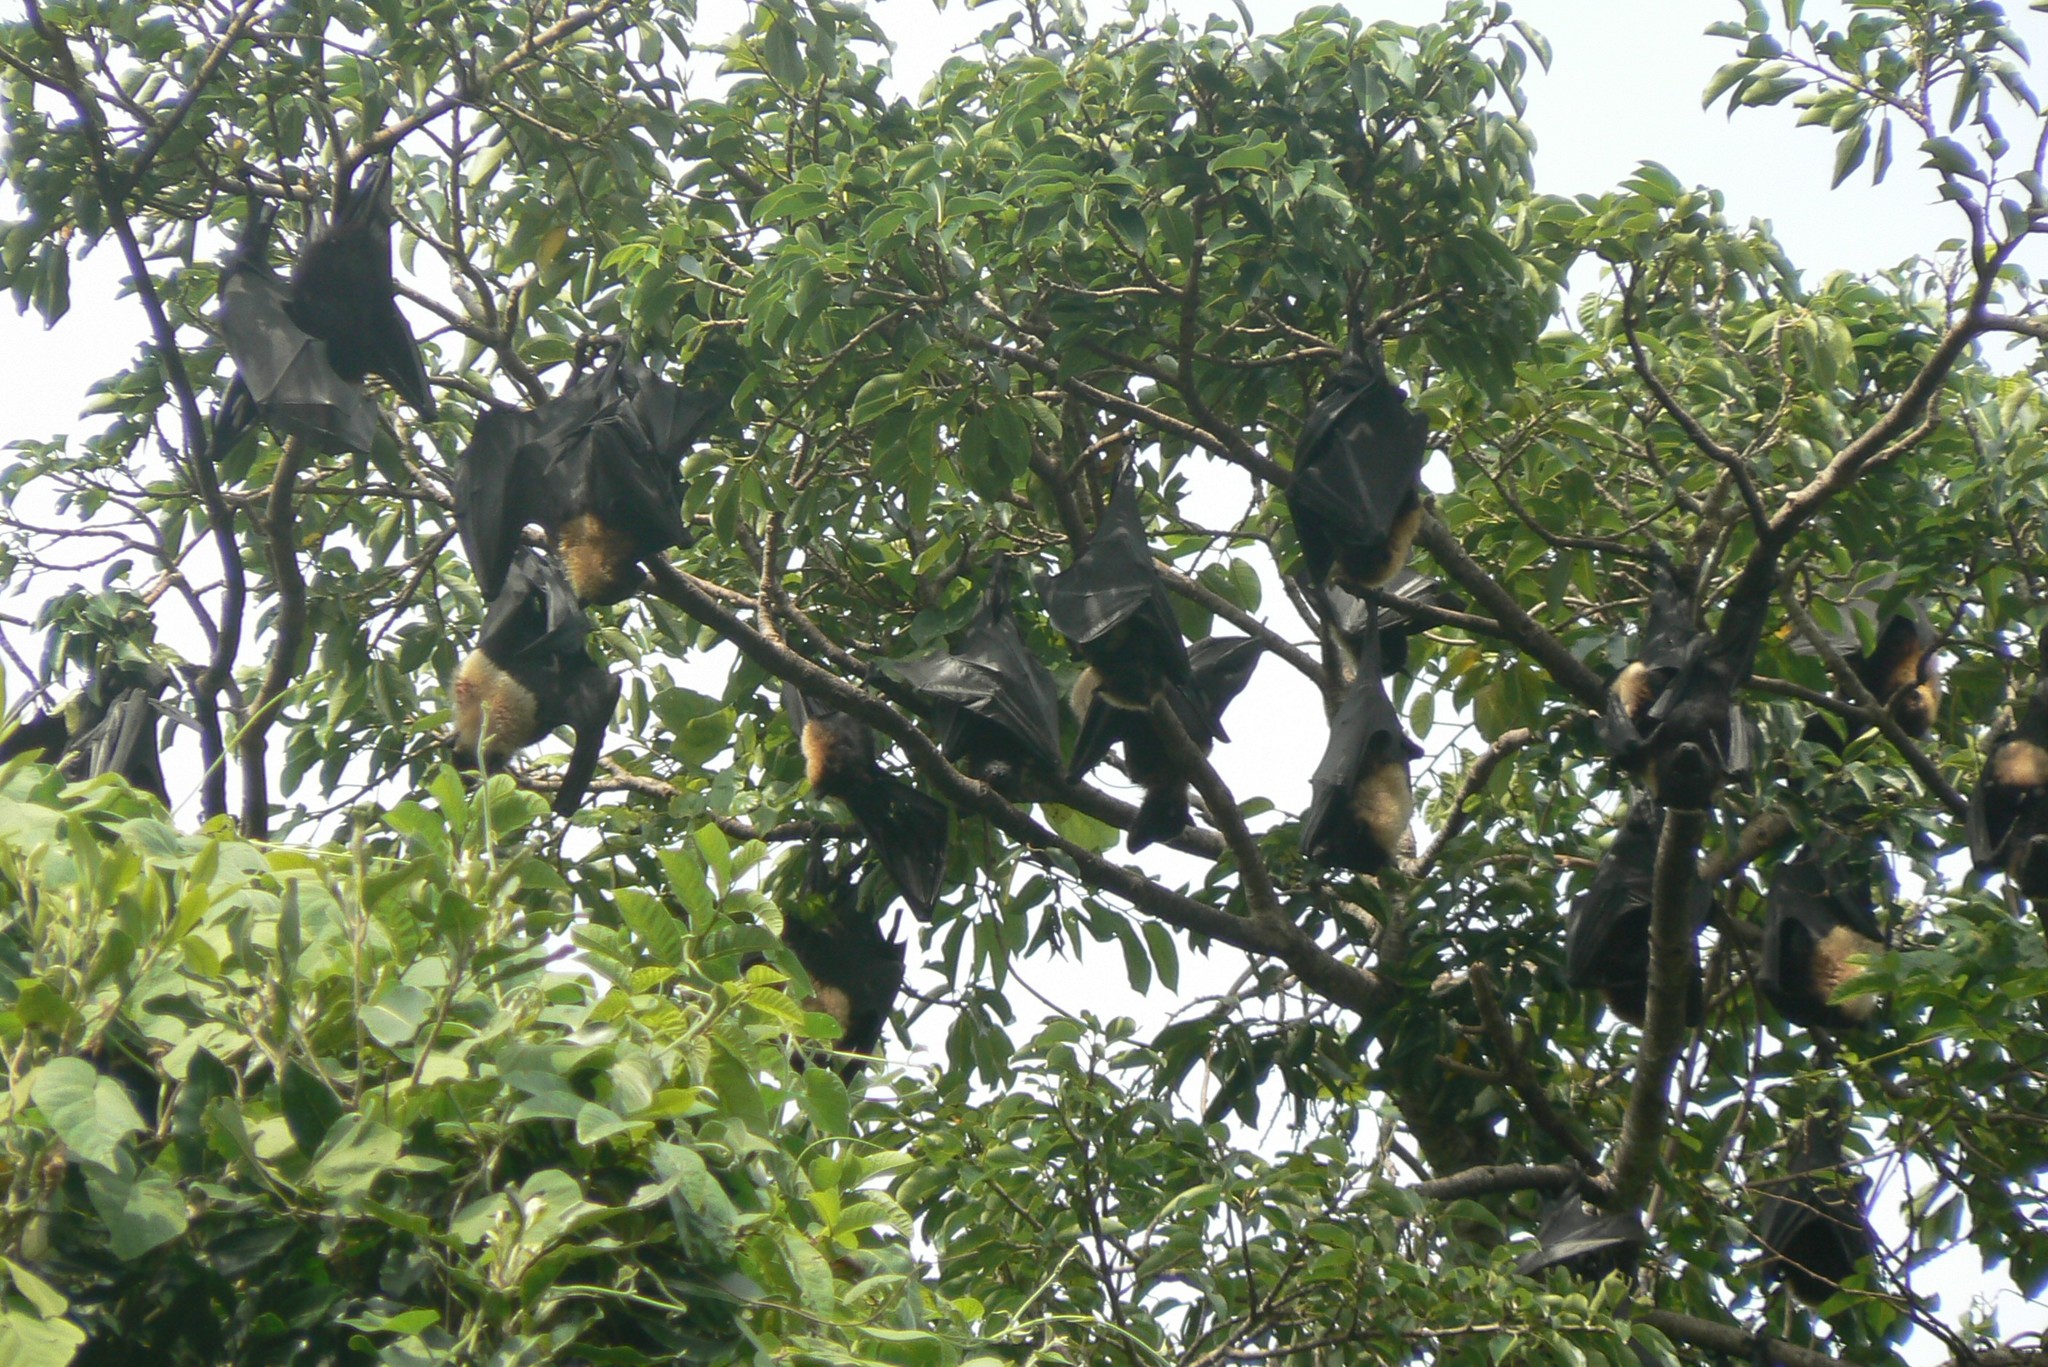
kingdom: Animalia
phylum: Chordata
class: Mammalia
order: Chiroptera
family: Pteropodidae
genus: Pteropus
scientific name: Pteropus tonganus
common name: Pacific flying fox
